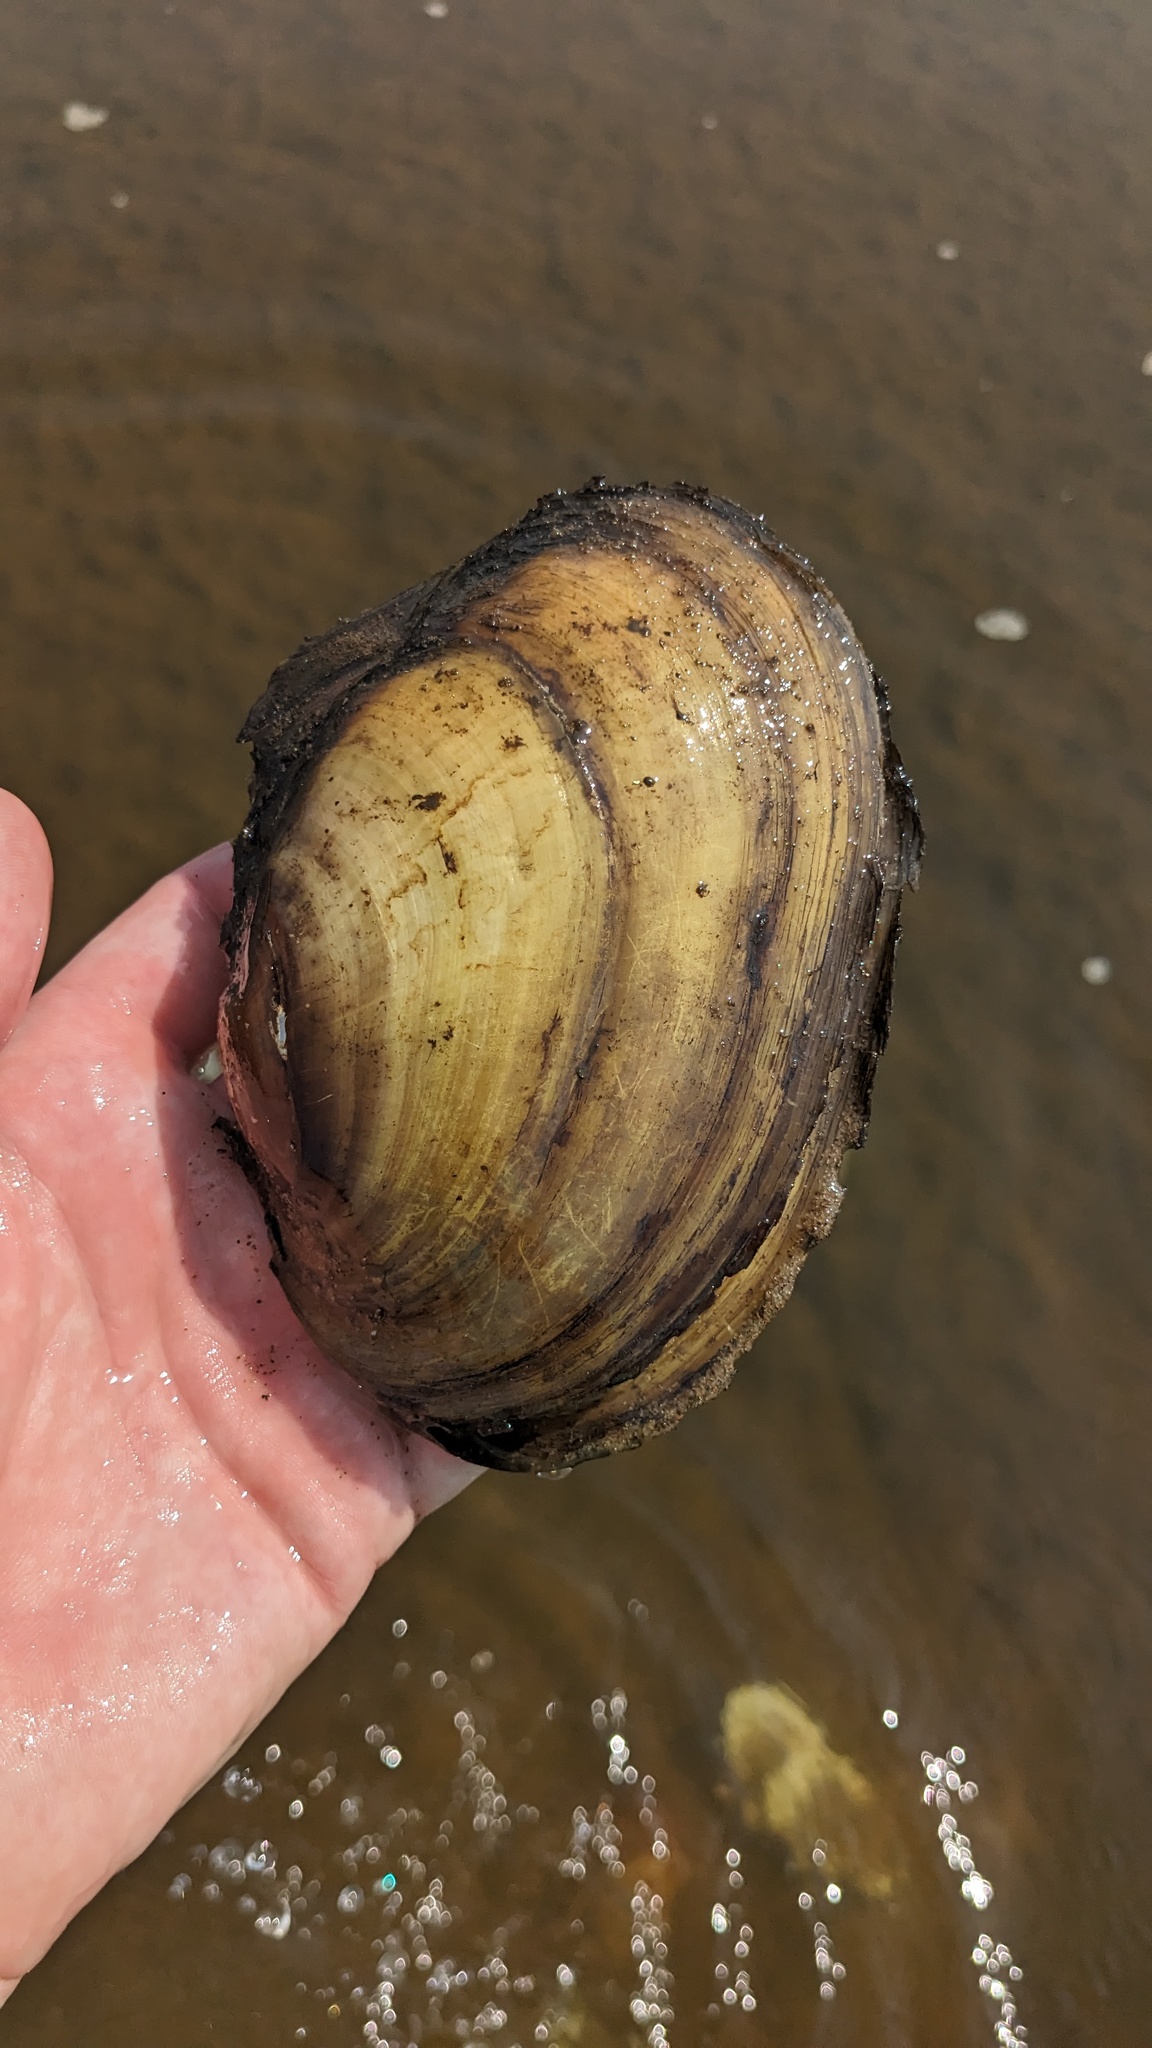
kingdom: Animalia
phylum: Mollusca
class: Bivalvia
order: Unionida
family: Unionidae
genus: Potamilus
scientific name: Potamilus fragilis
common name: Fragile papershell
